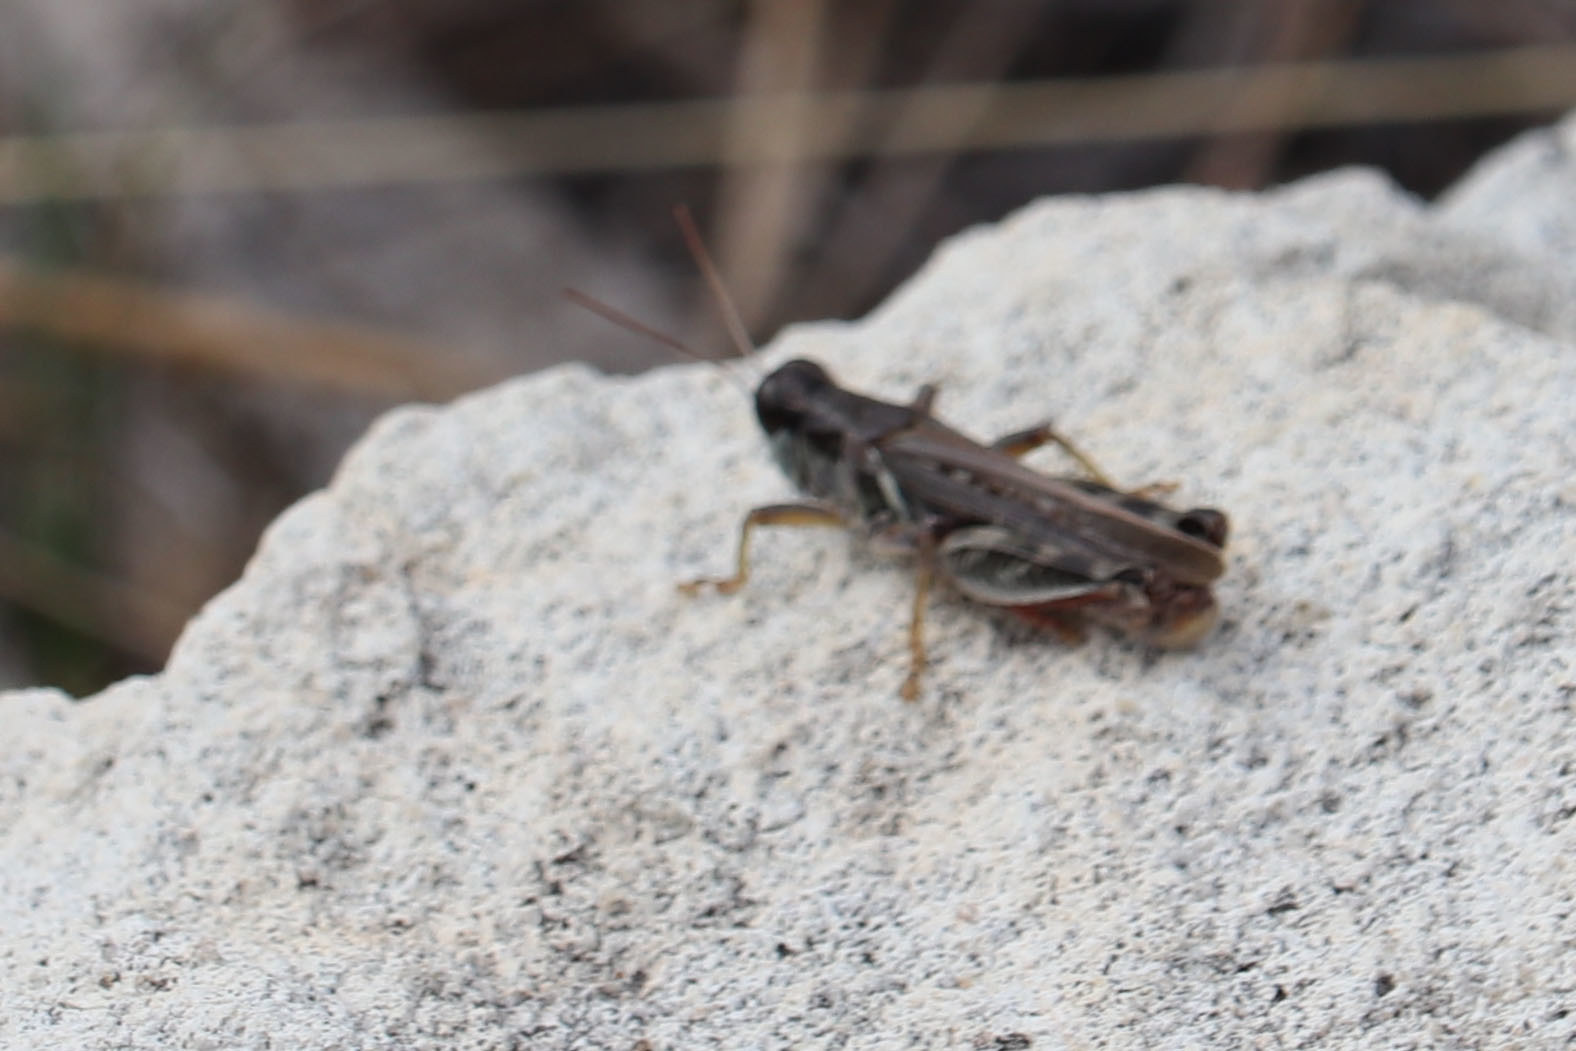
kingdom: Animalia
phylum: Arthropoda
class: Insecta
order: Orthoptera
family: Acrididae
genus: Melanoplus
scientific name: Melanoplus sanguinipes
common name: Migratory grasshopper
